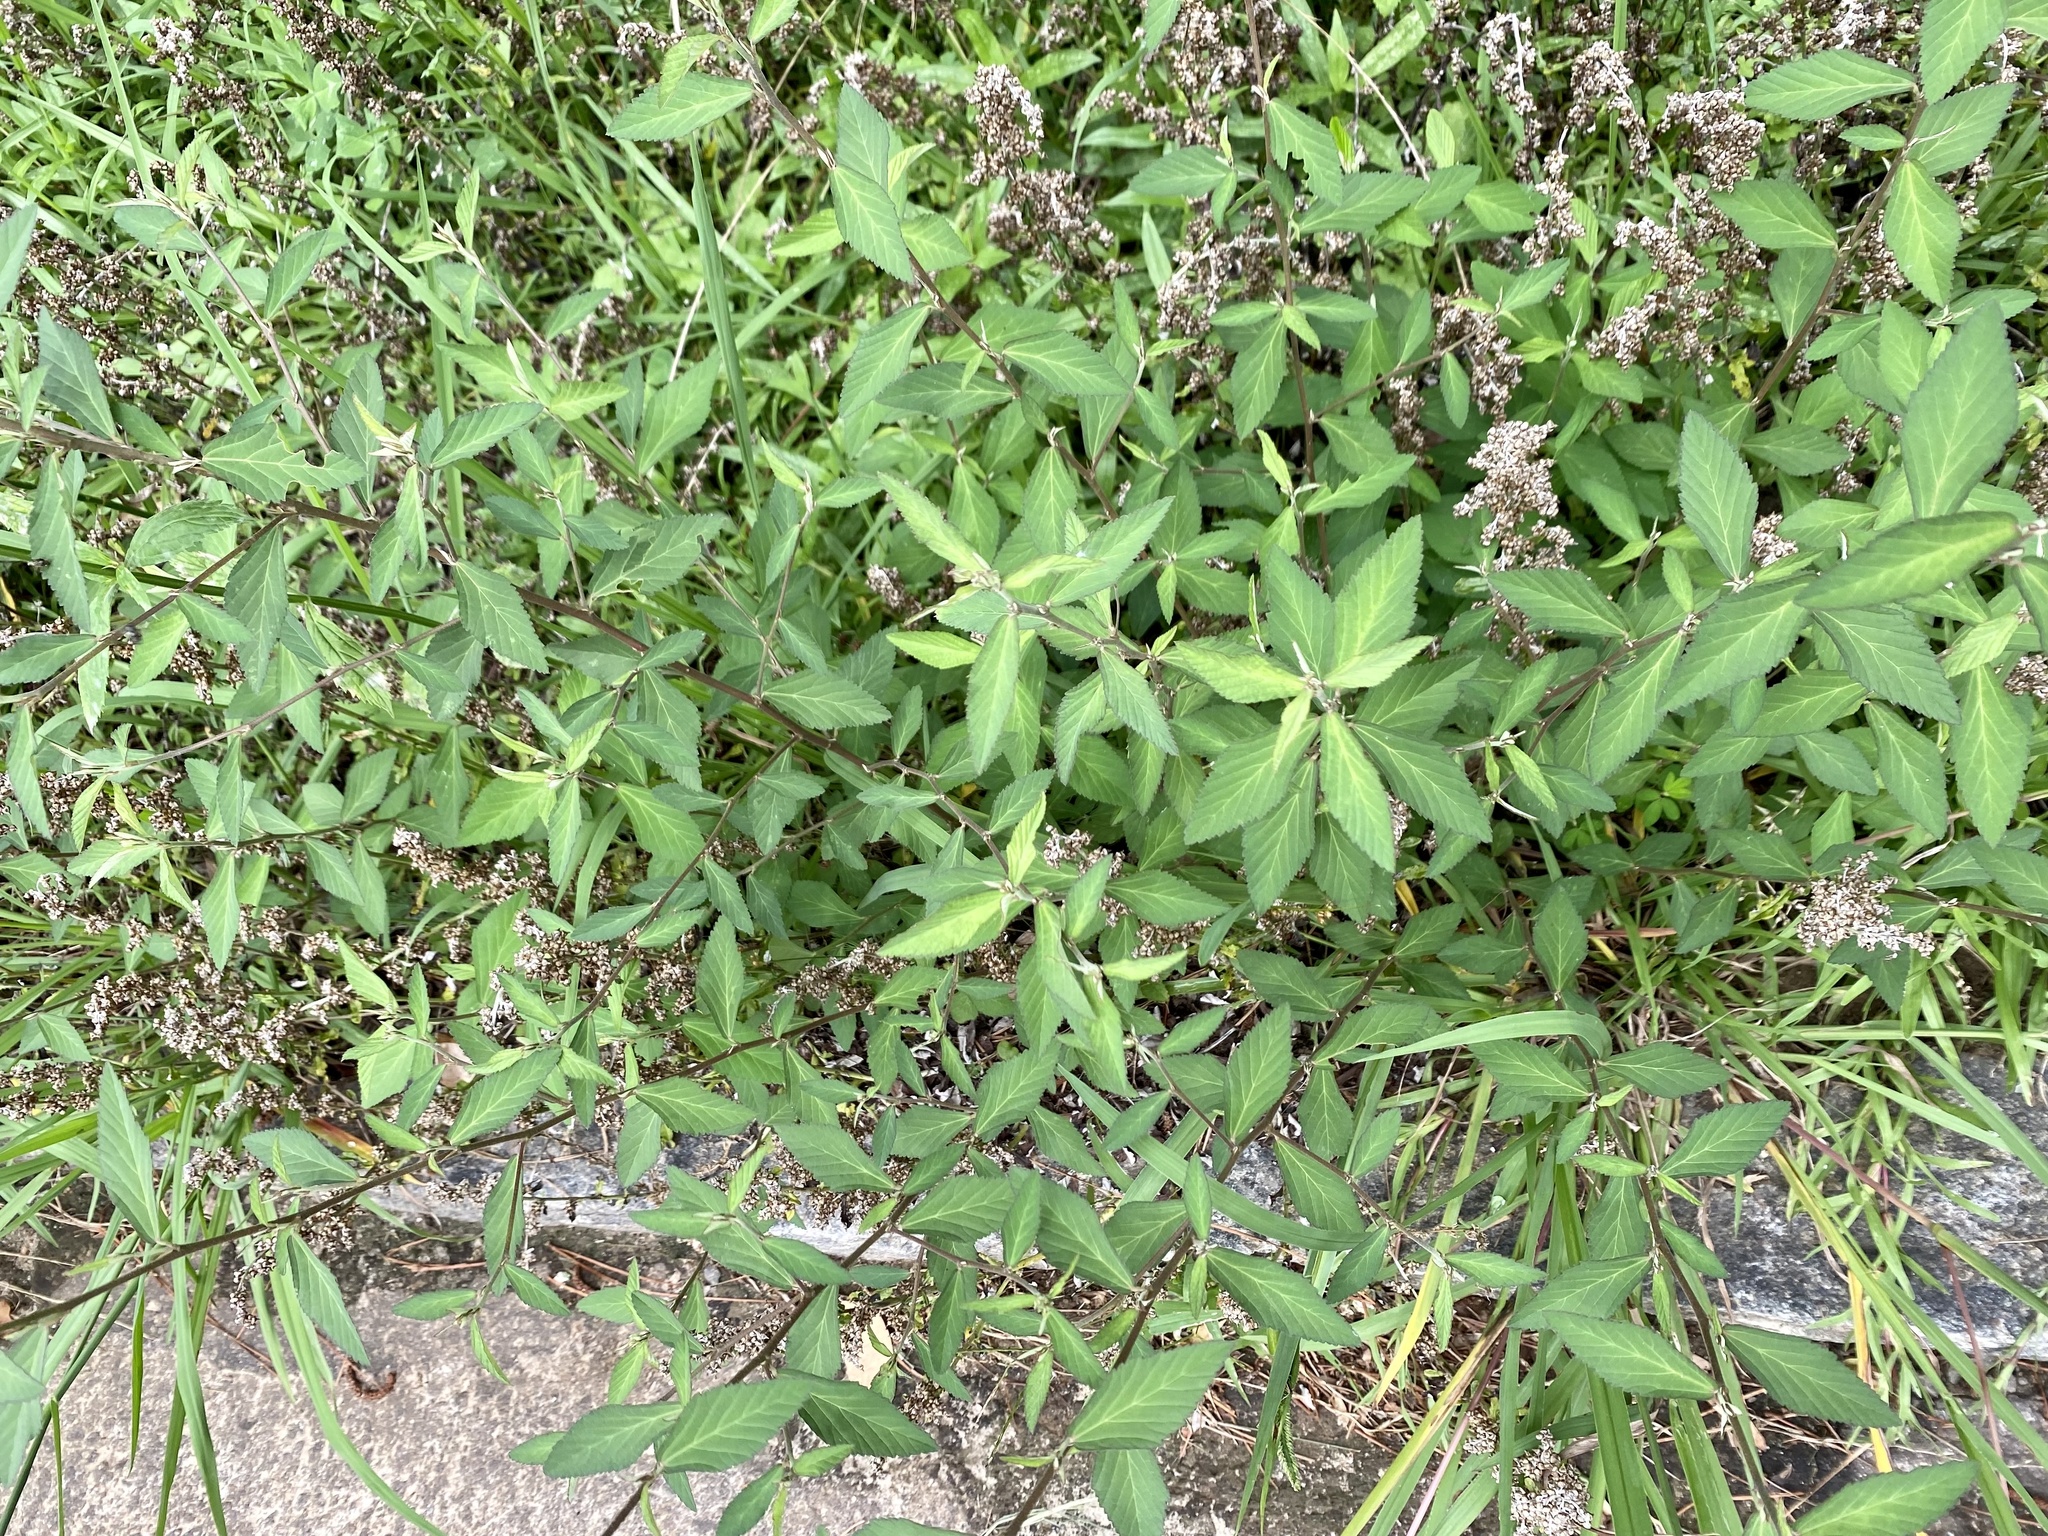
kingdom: Plantae
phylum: Tracheophyta
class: Magnoliopsida
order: Malvales
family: Malvaceae
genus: Sida
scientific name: Sida rhombifolia
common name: Queensland-hemp
